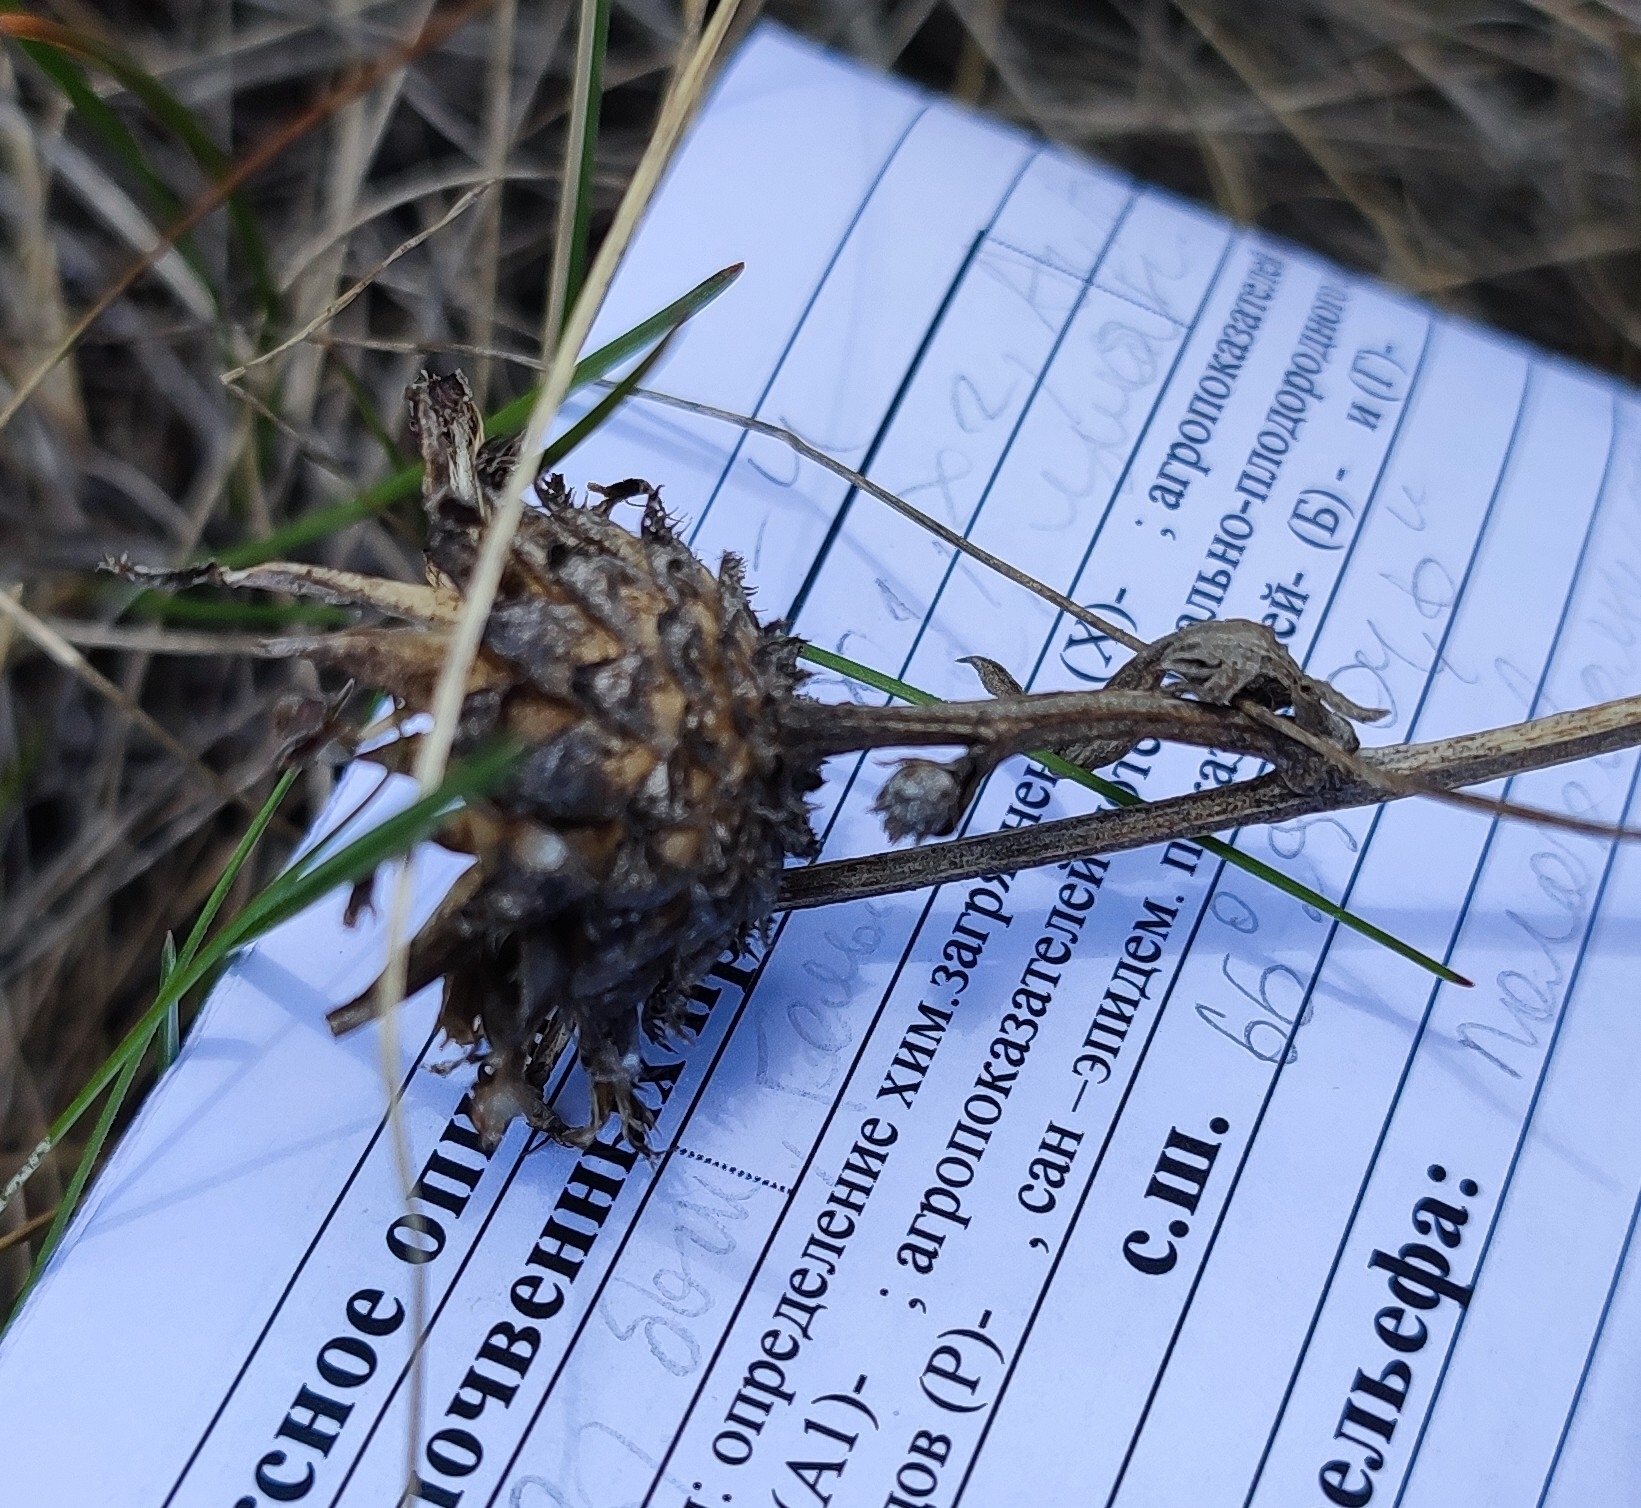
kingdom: Plantae
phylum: Tracheophyta
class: Magnoliopsida
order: Asterales
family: Asteraceae
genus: Centaurea
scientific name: Centaurea scabiosa
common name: Greater knapweed
